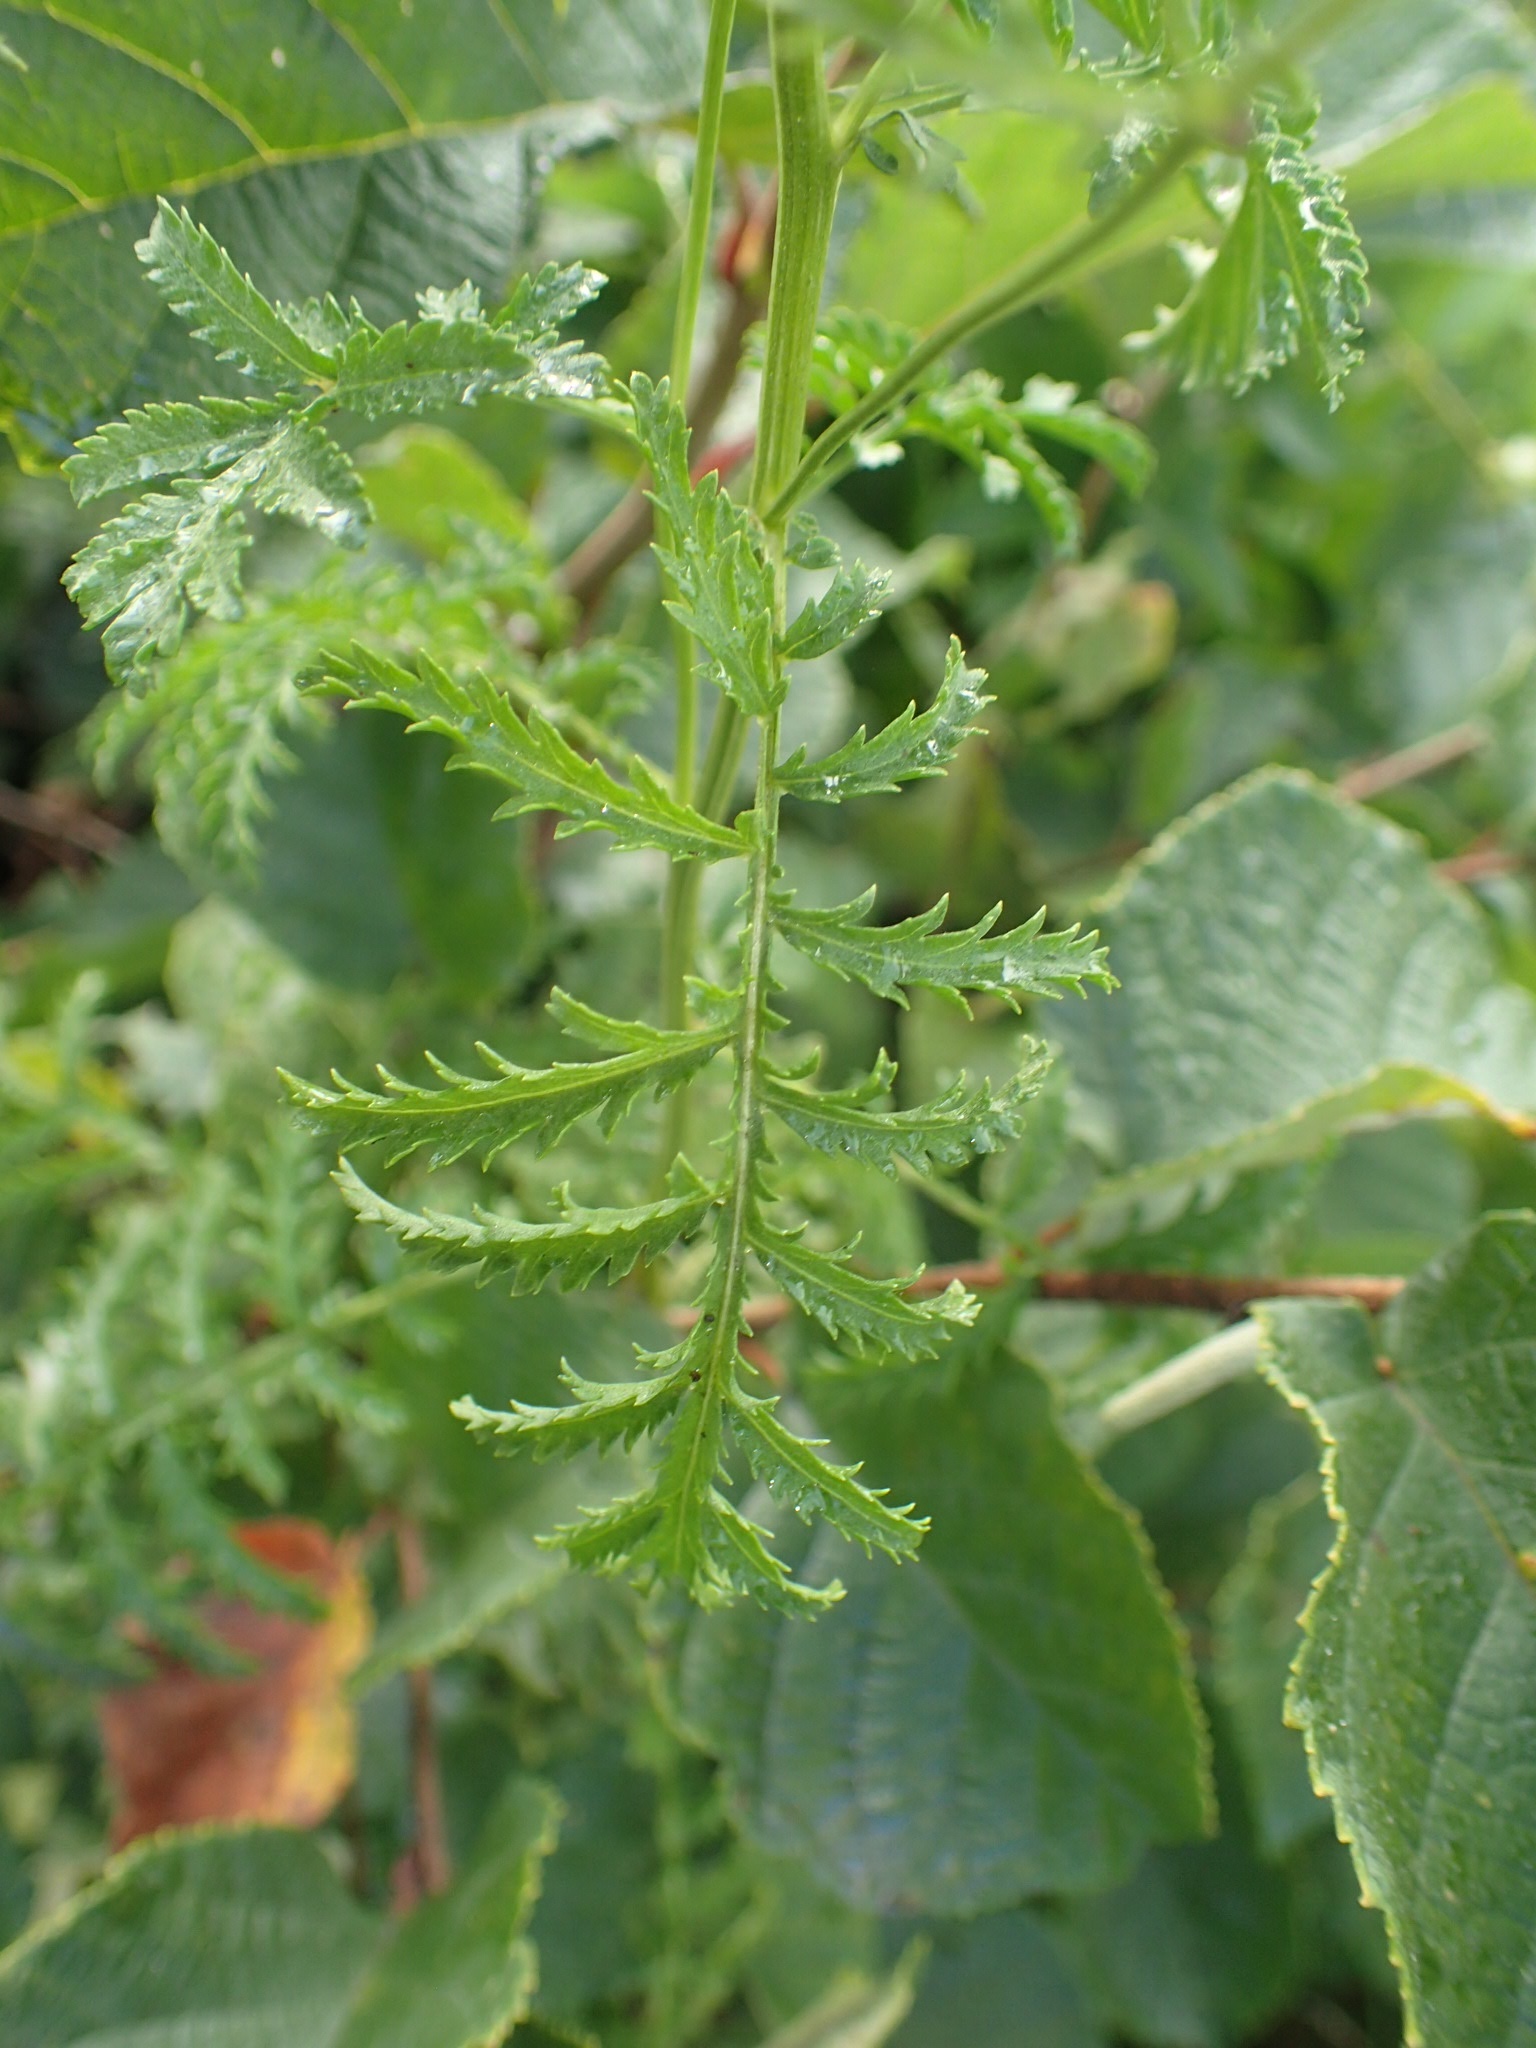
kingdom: Plantae
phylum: Tracheophyta
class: Magnoliopsida
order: Asterales
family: Asteraceae
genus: Tanacetum
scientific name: Tanacetum vulgare
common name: Common tansy
